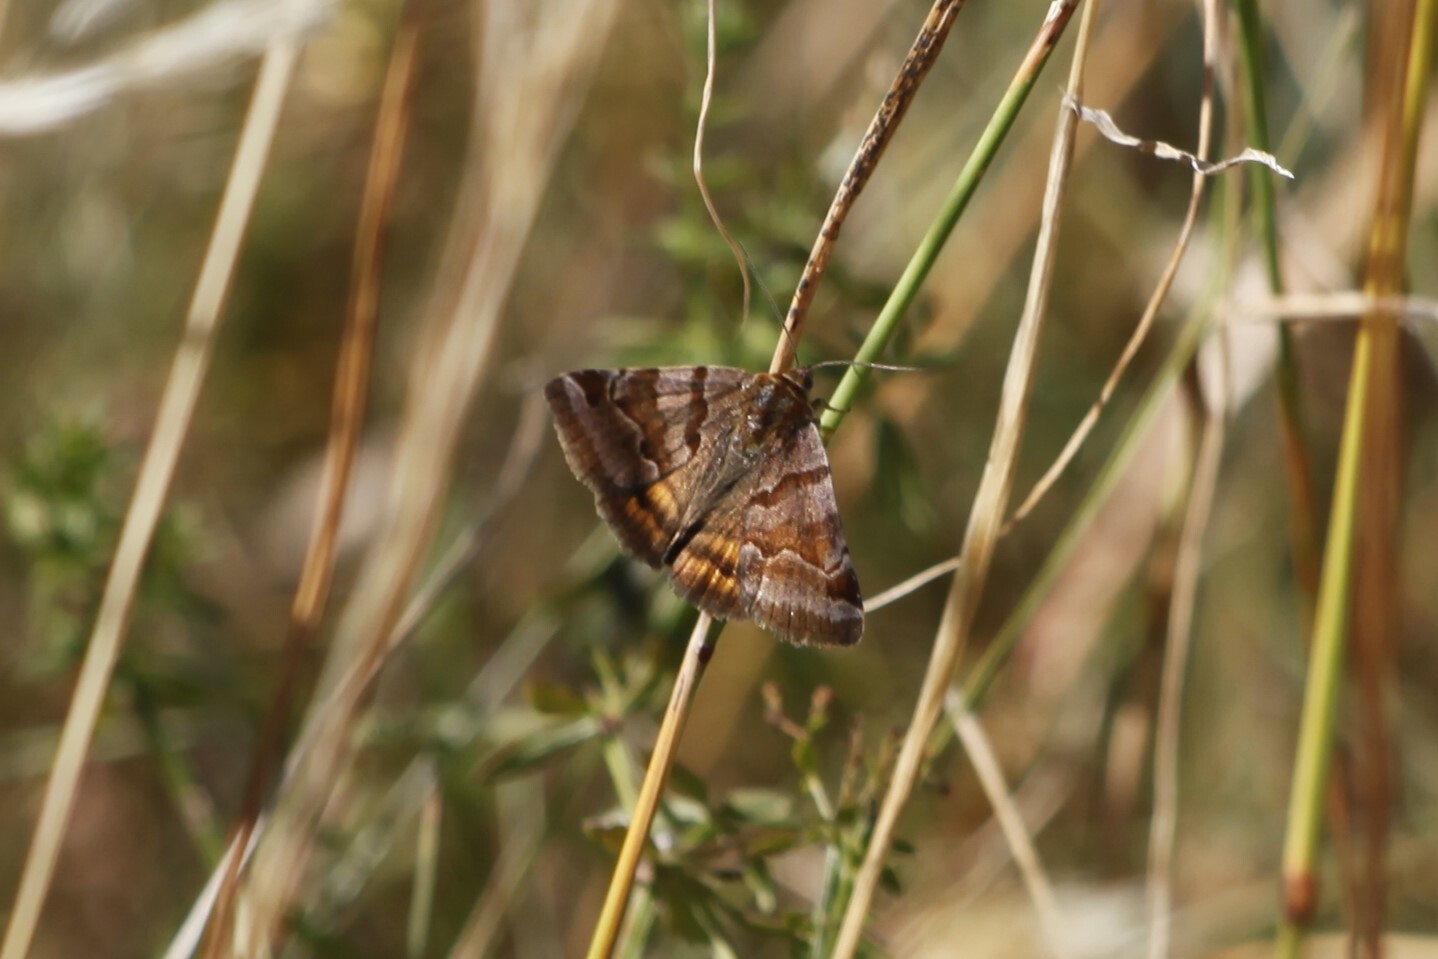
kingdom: Animalia
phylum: Arthropoda
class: Insecta
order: Lepidoptera
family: Erebidae
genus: Euclidia
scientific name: Euclidia glyphica
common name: Burnet companion
